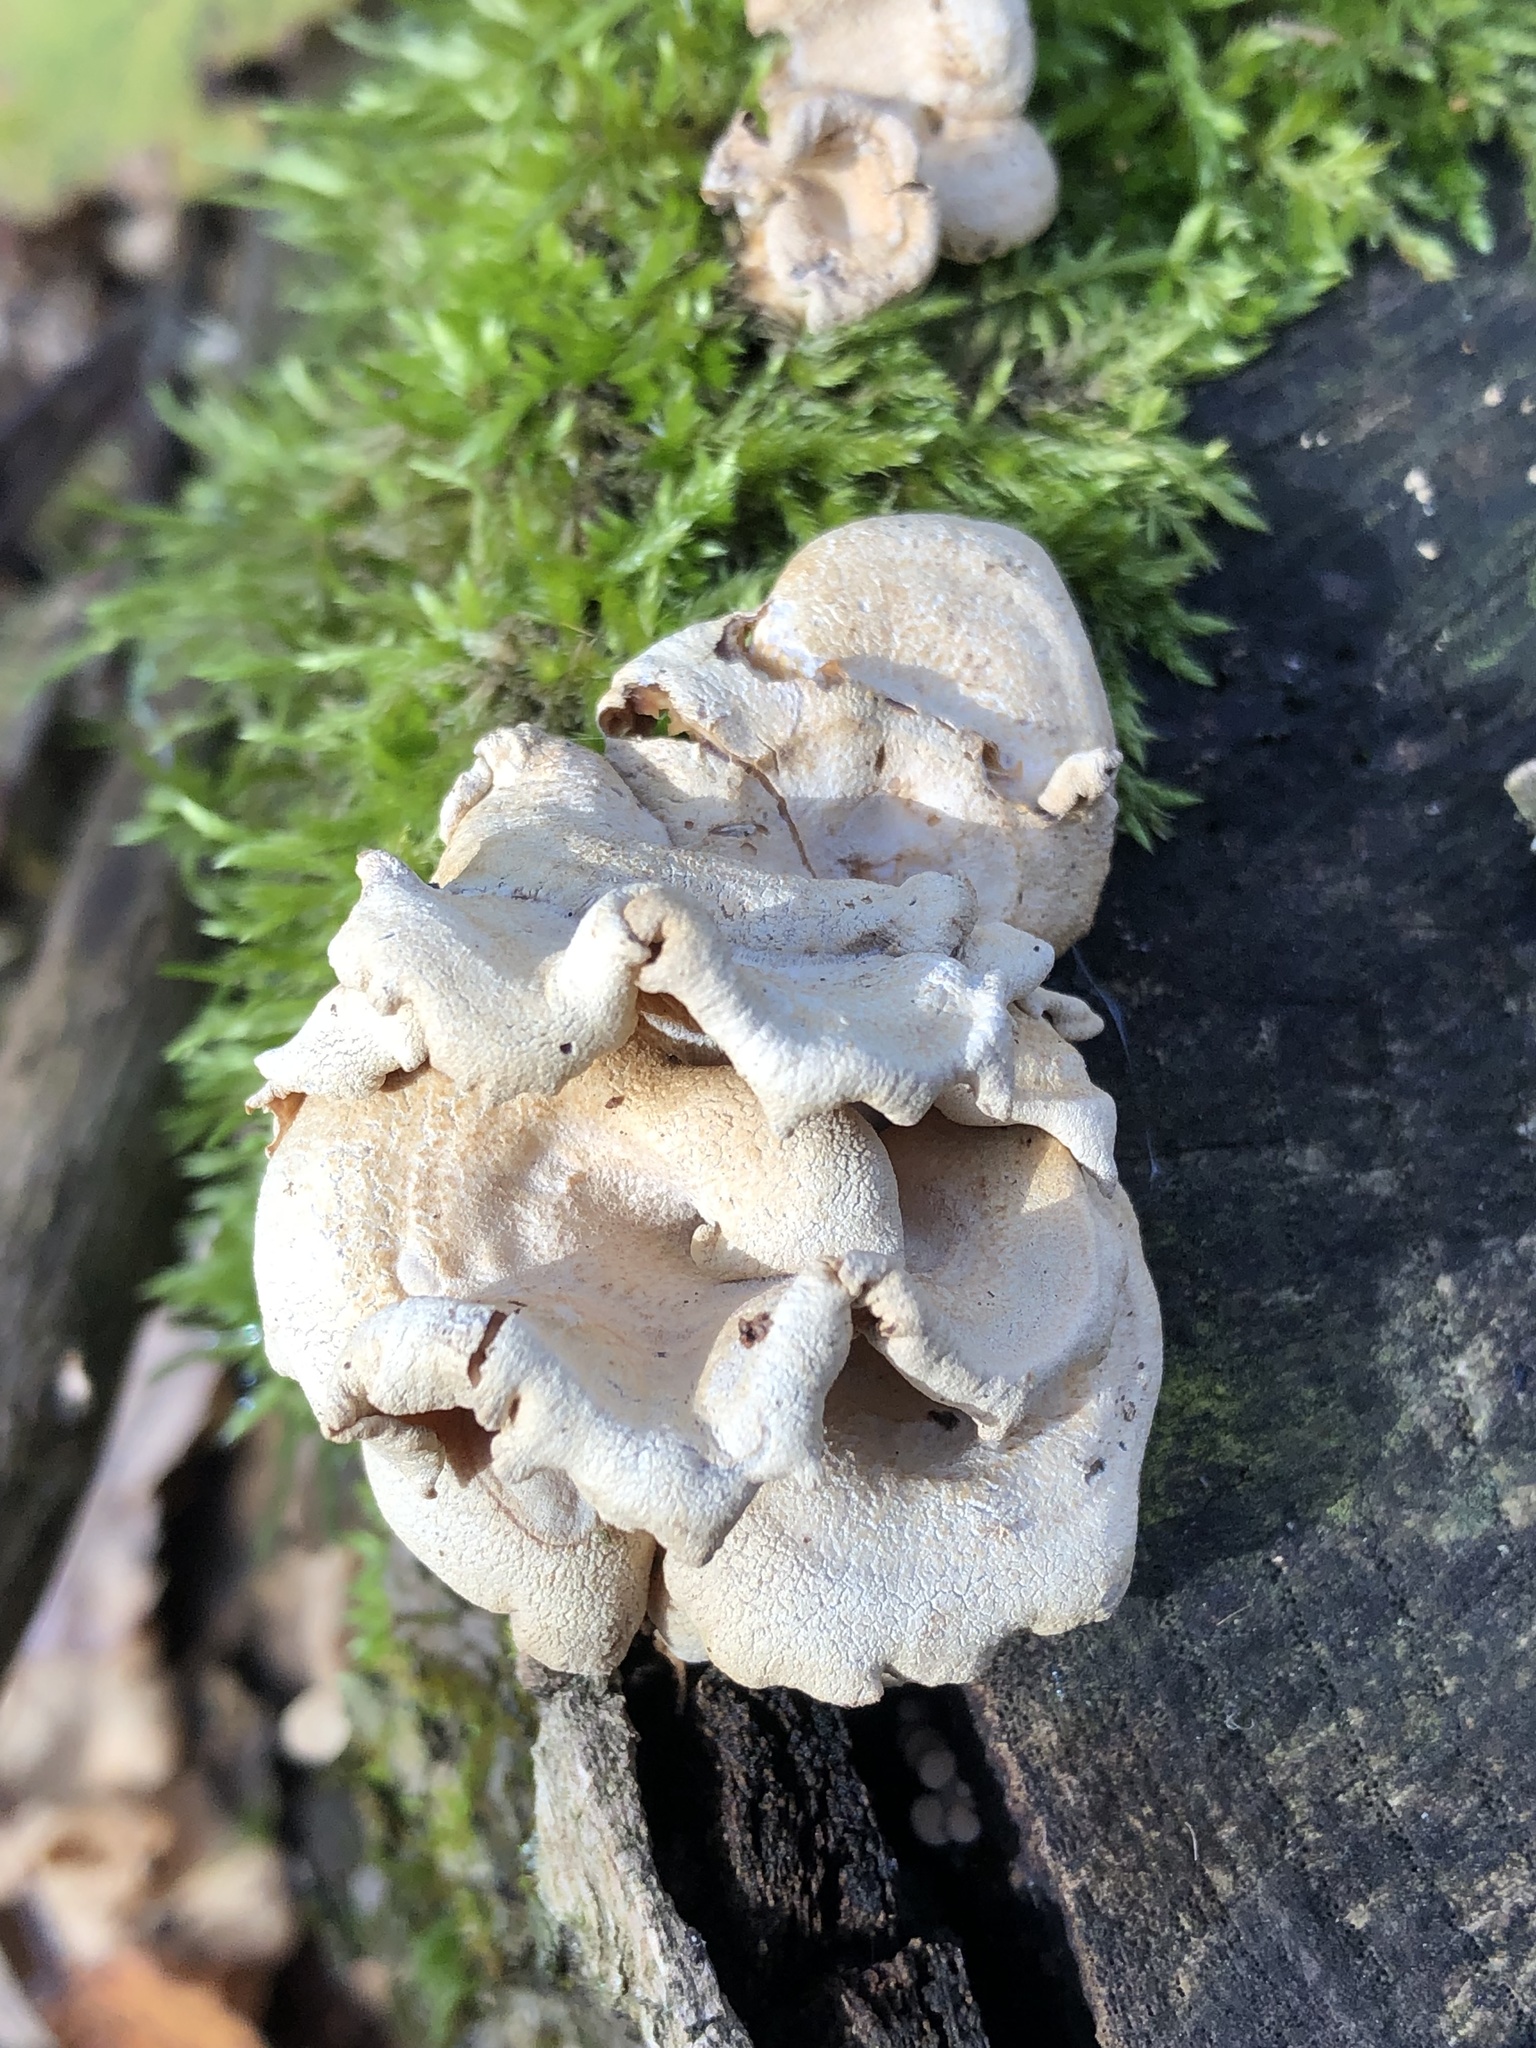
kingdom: Fungi
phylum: Basidiomycota
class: Agaricomycetes
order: Agaricales
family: Mycenaceae
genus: Panellus
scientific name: Panellus stipticus
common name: Bitter oysterling
